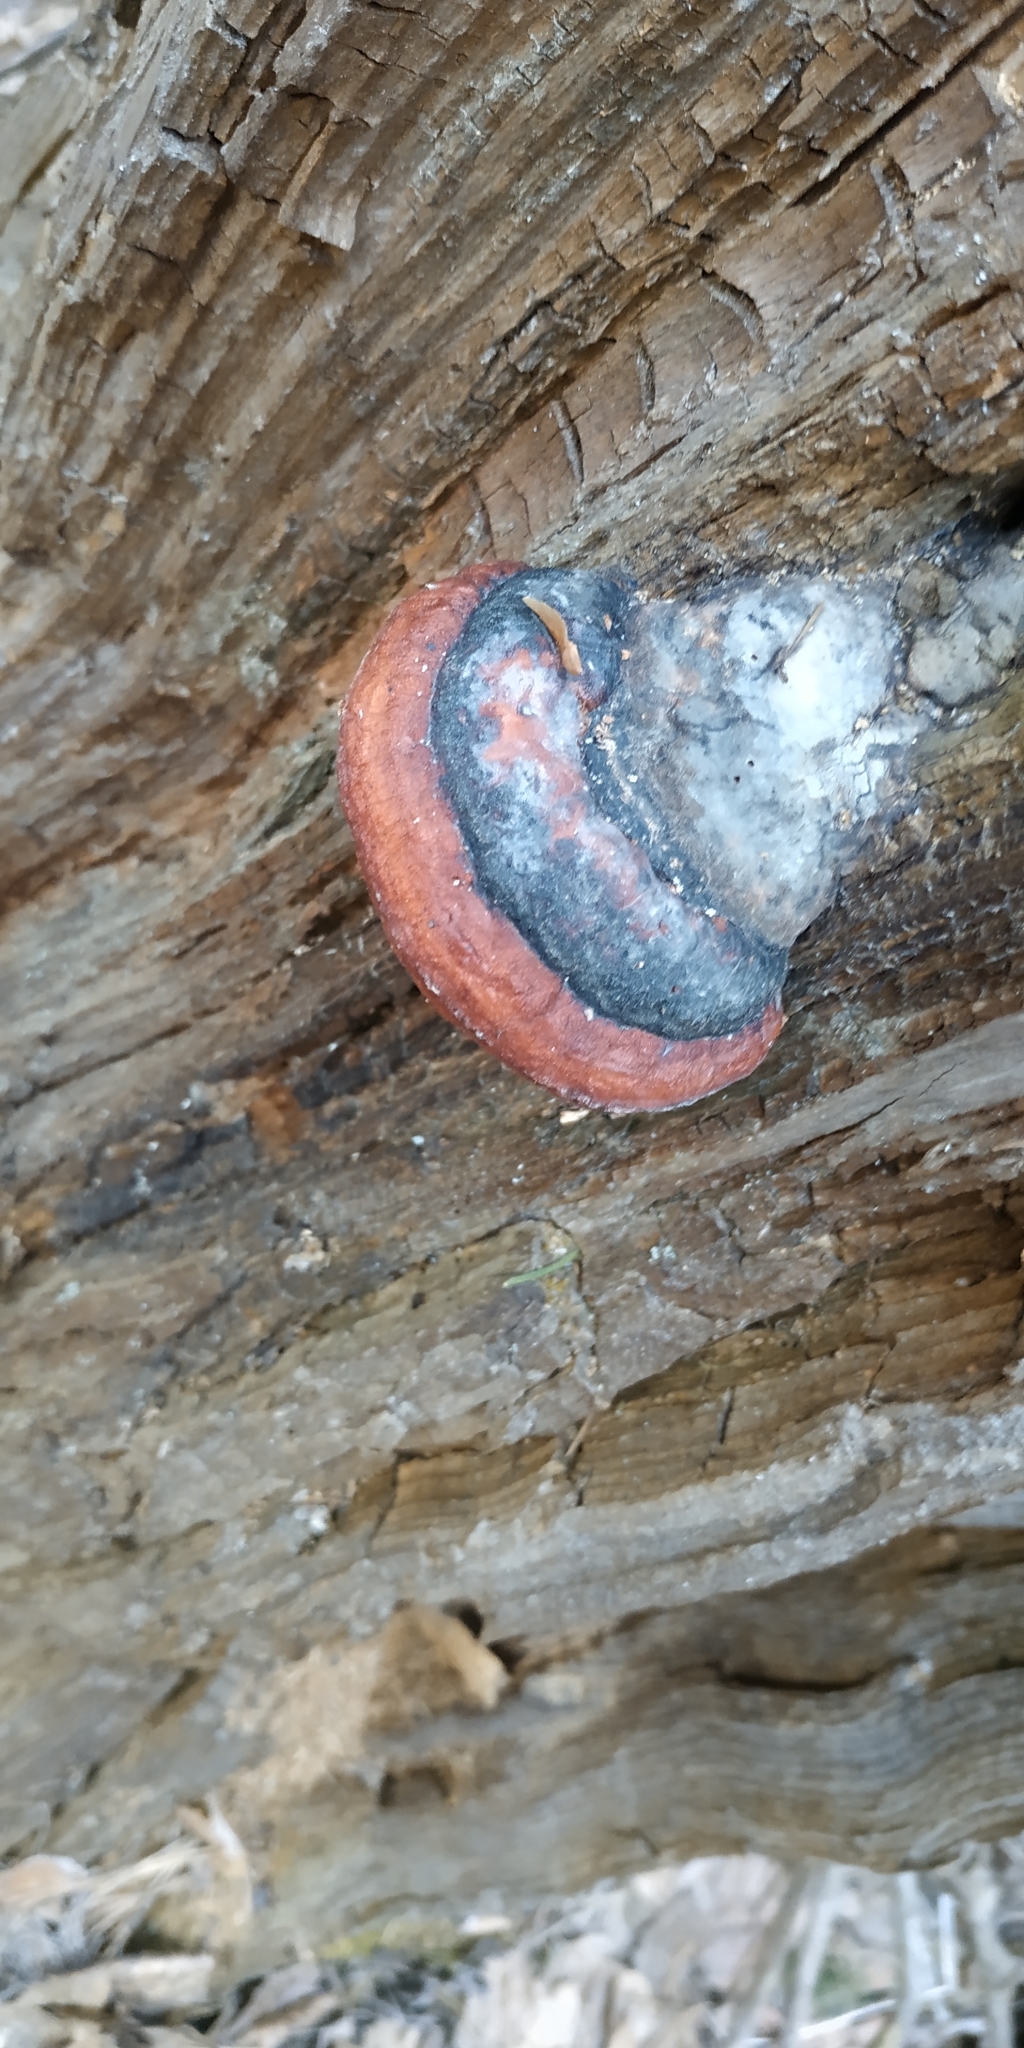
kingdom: Fungi
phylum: Basidiomycota
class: Agaricomycetes
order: Polyporales
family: Fomitopsidaceae
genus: Fomitopsis
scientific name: Fomitopsis pinicola
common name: Red-belted bracket
